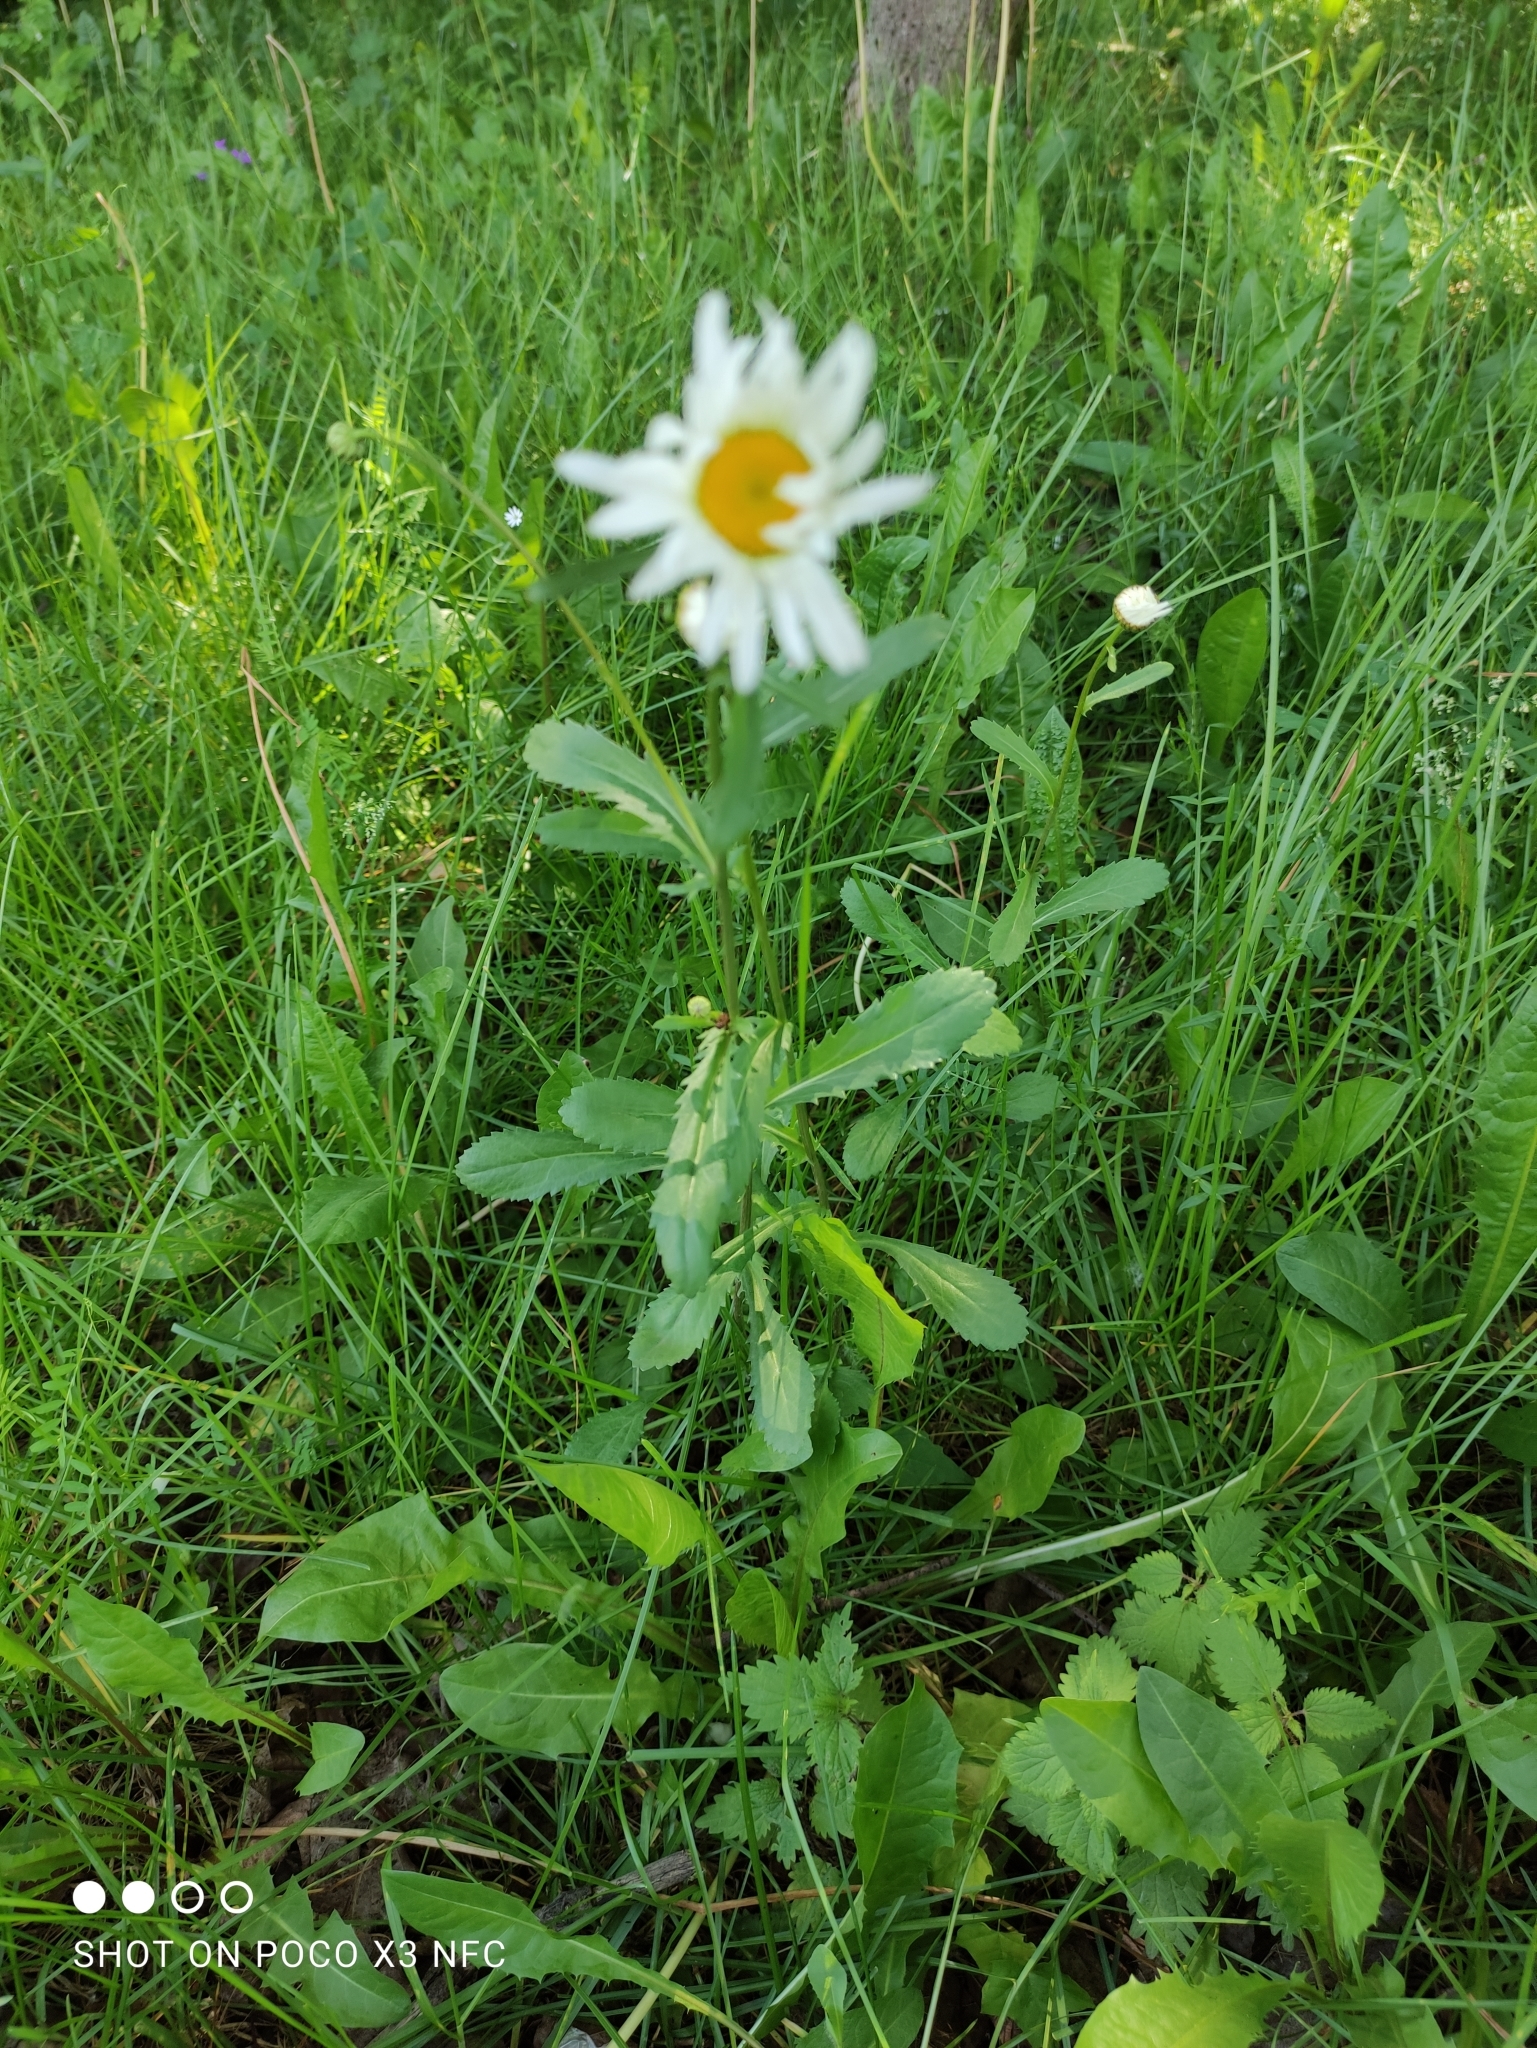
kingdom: Plantae
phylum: Tracheophyta
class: Magnoliopsida
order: Asterales
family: Asteraceae
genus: Leucanthemum
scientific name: Leucanthemum vulgare
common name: Oxeye daisy
